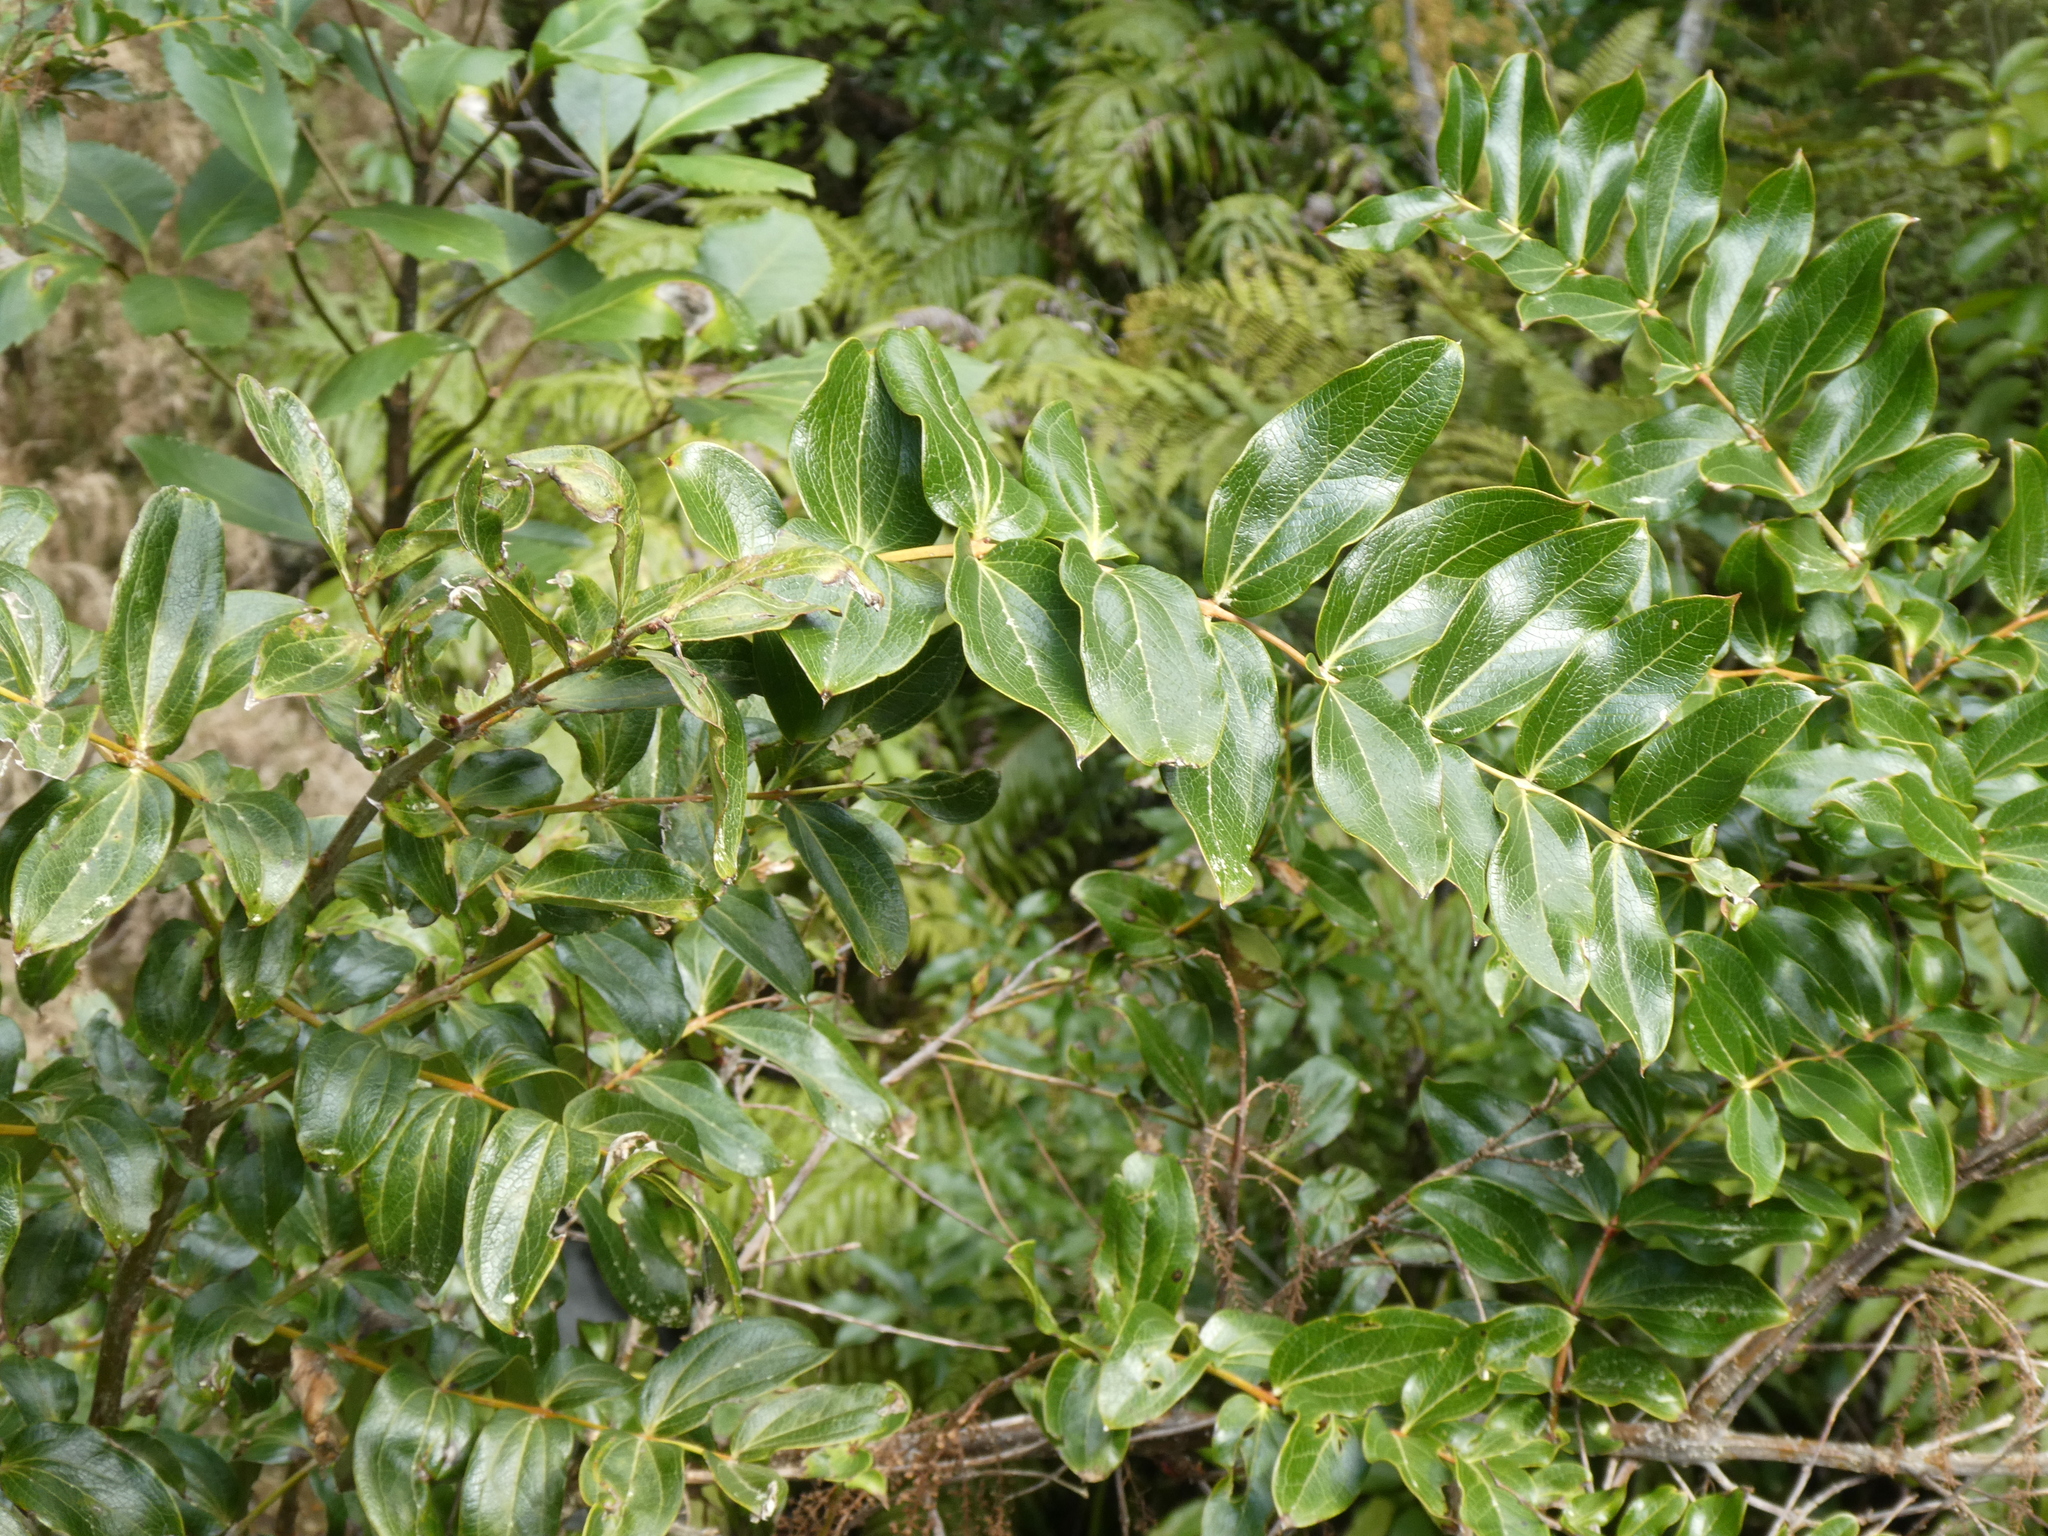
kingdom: Plantae
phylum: Tracheophyta
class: Magnoliopsida
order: Cucurbitales
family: Coriariaceae
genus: Coriaria
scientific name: Coriaria arborea
